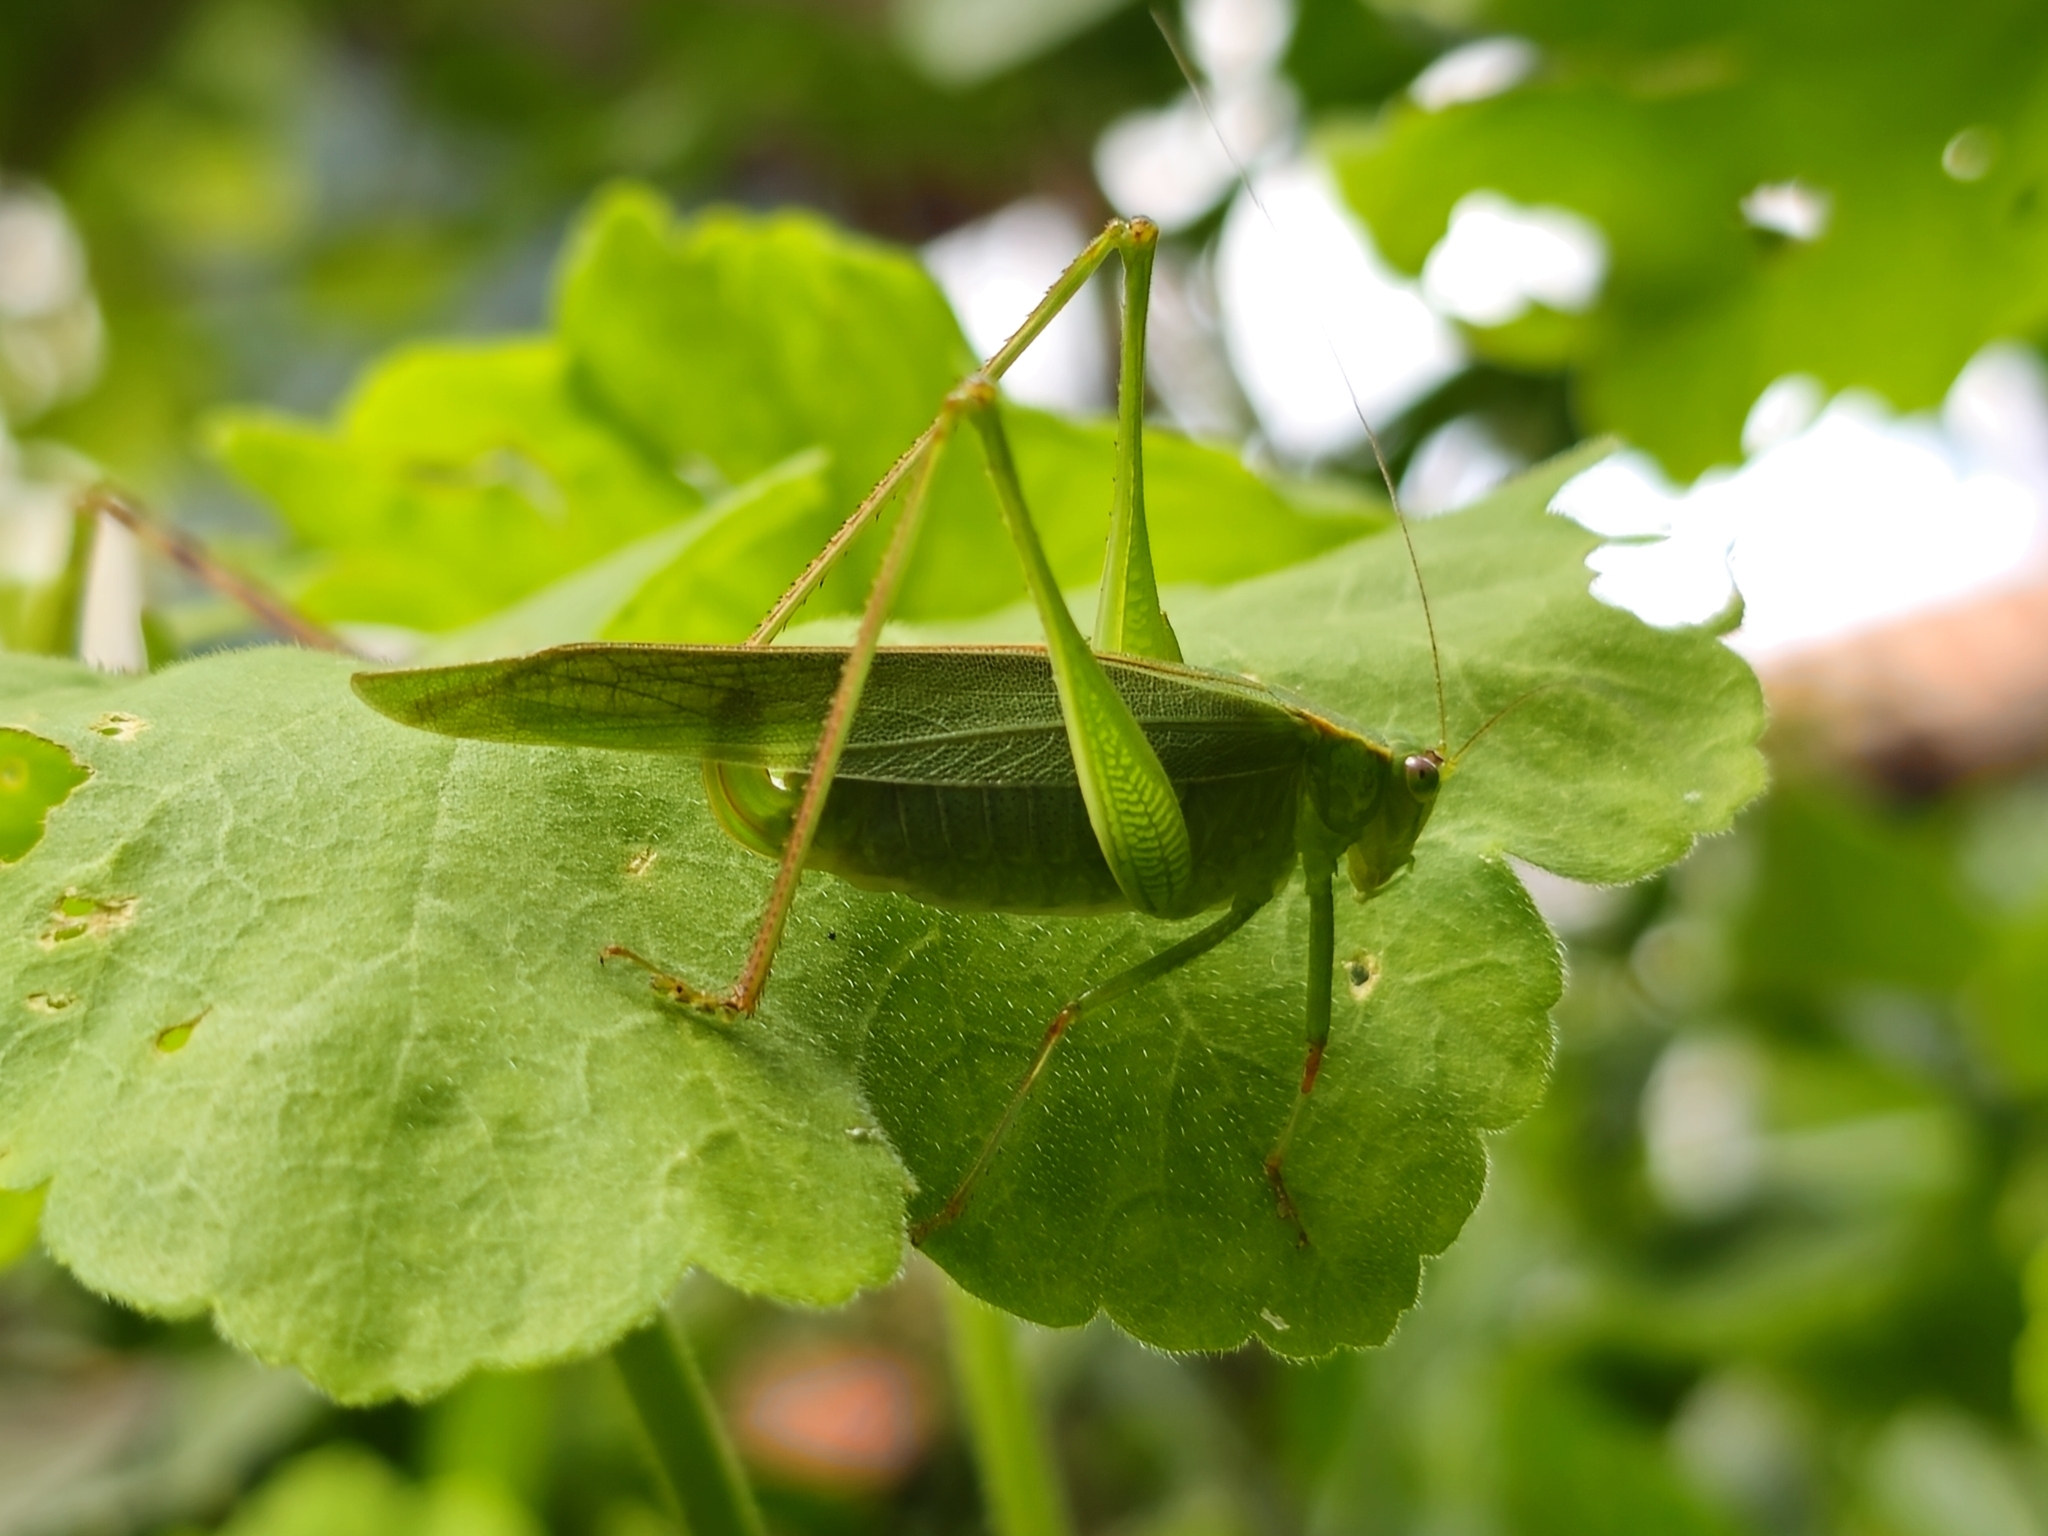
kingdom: Animalia
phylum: Arthropoda
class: Insecta
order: Orthoptera
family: Tettigoniidae
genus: Ligocatinus
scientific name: Ligocatinus spinatus
